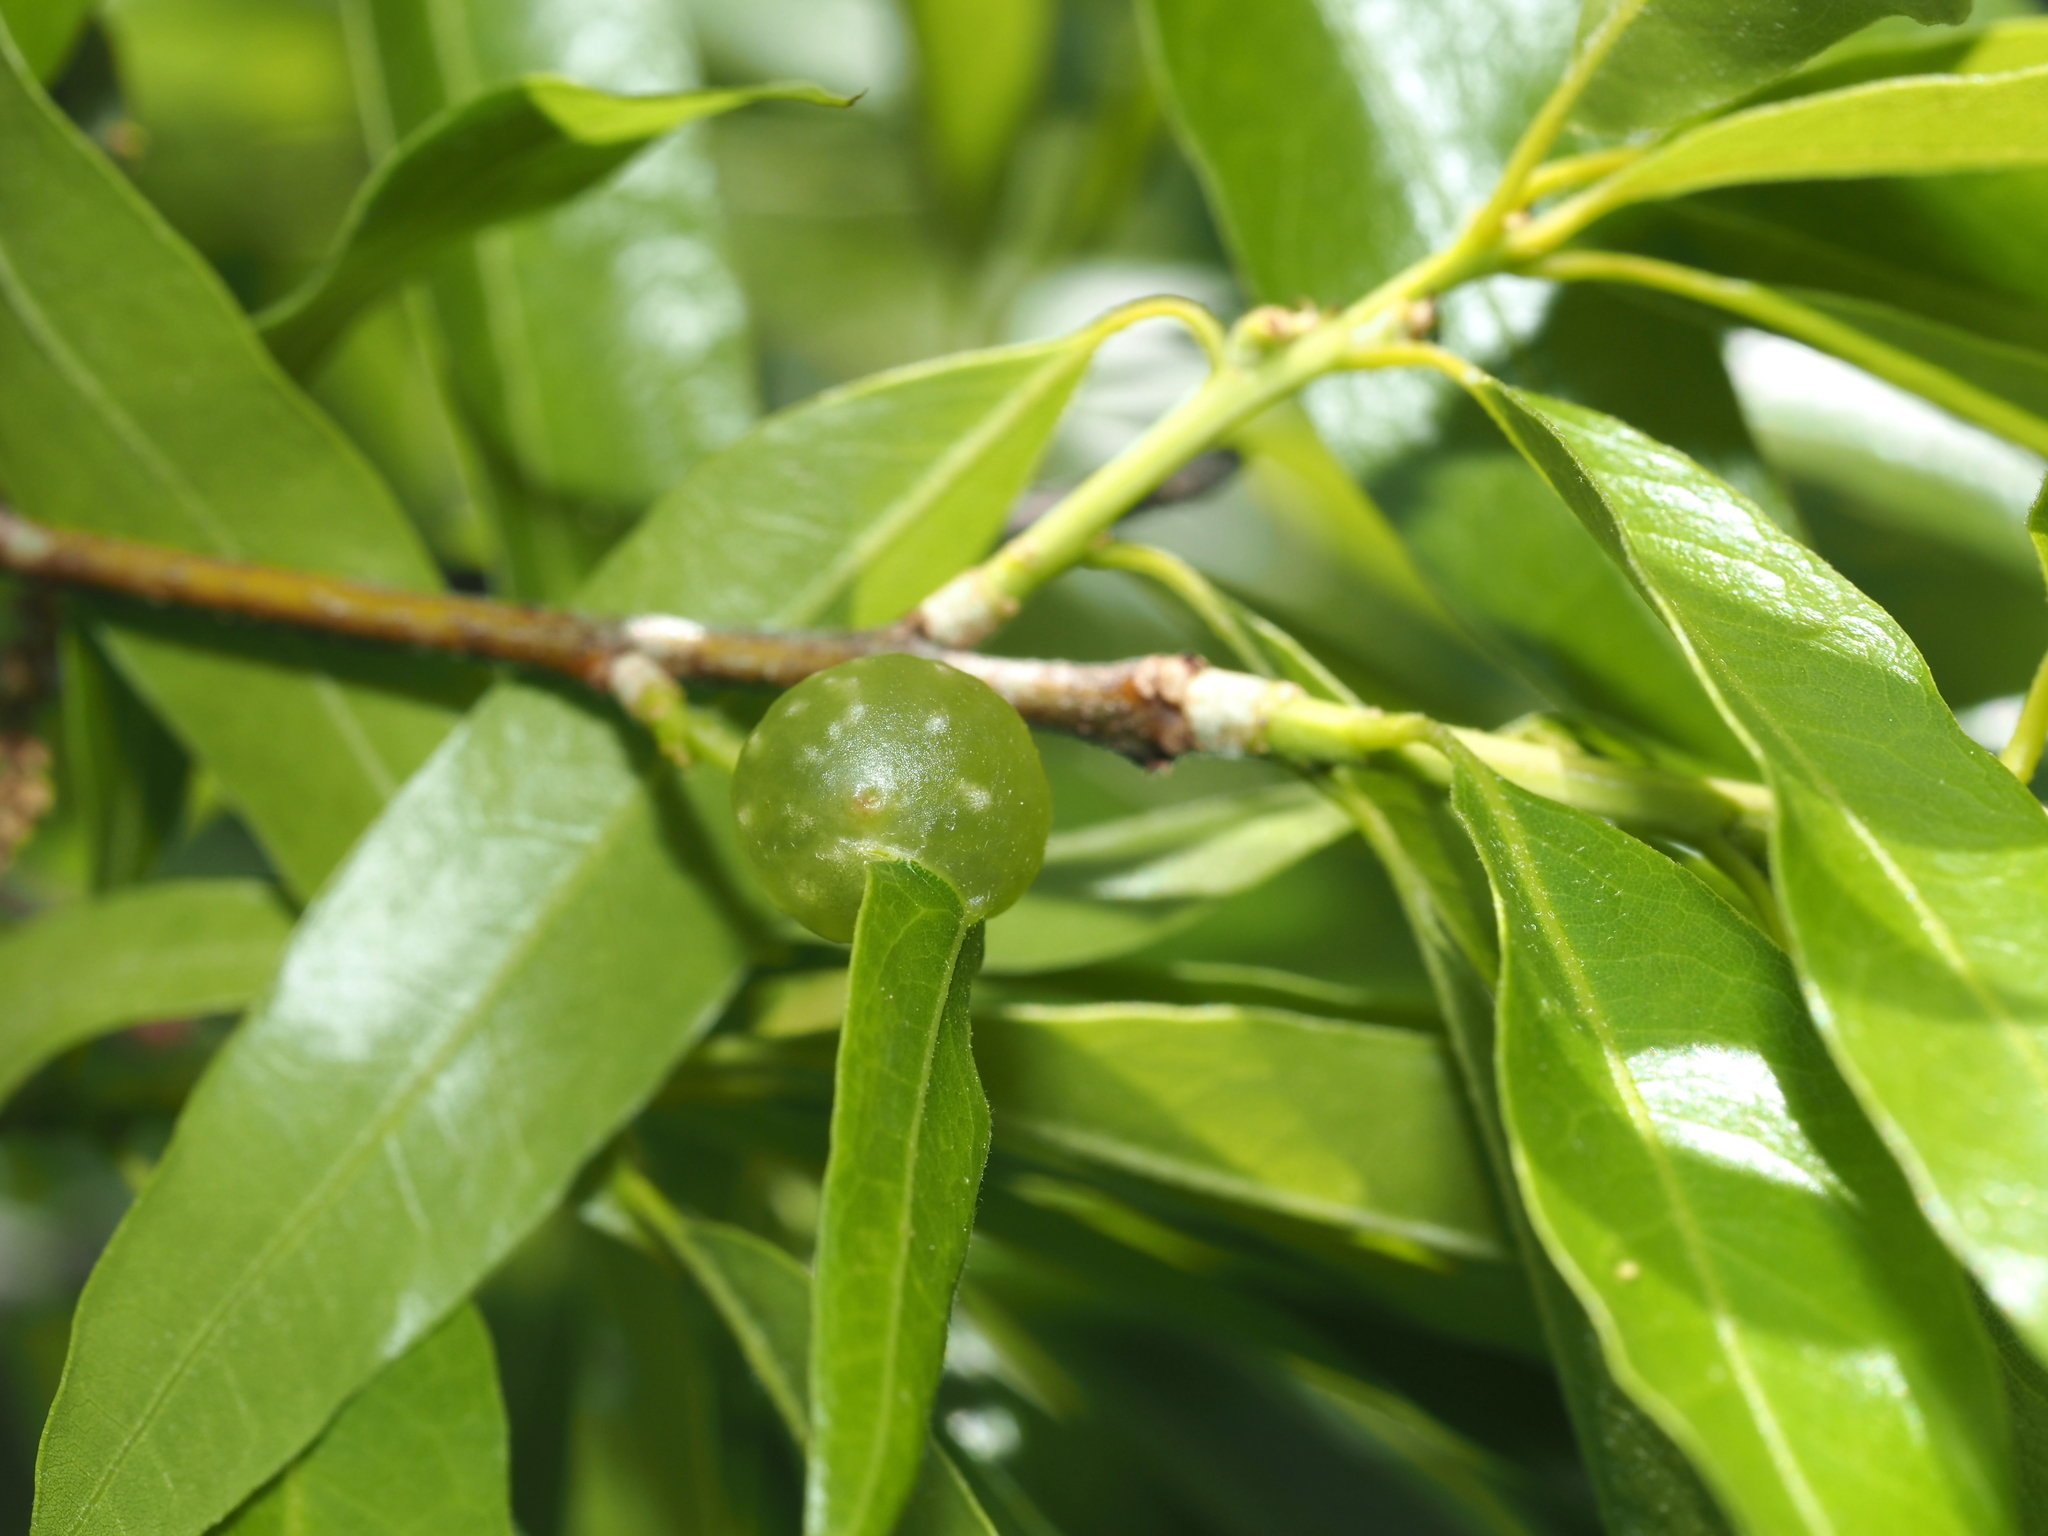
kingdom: Animalia
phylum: Arthropoda
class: Insecta
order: Hymenoptera
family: Cynipidae
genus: Dryocosmus
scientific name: Dryocosmus
